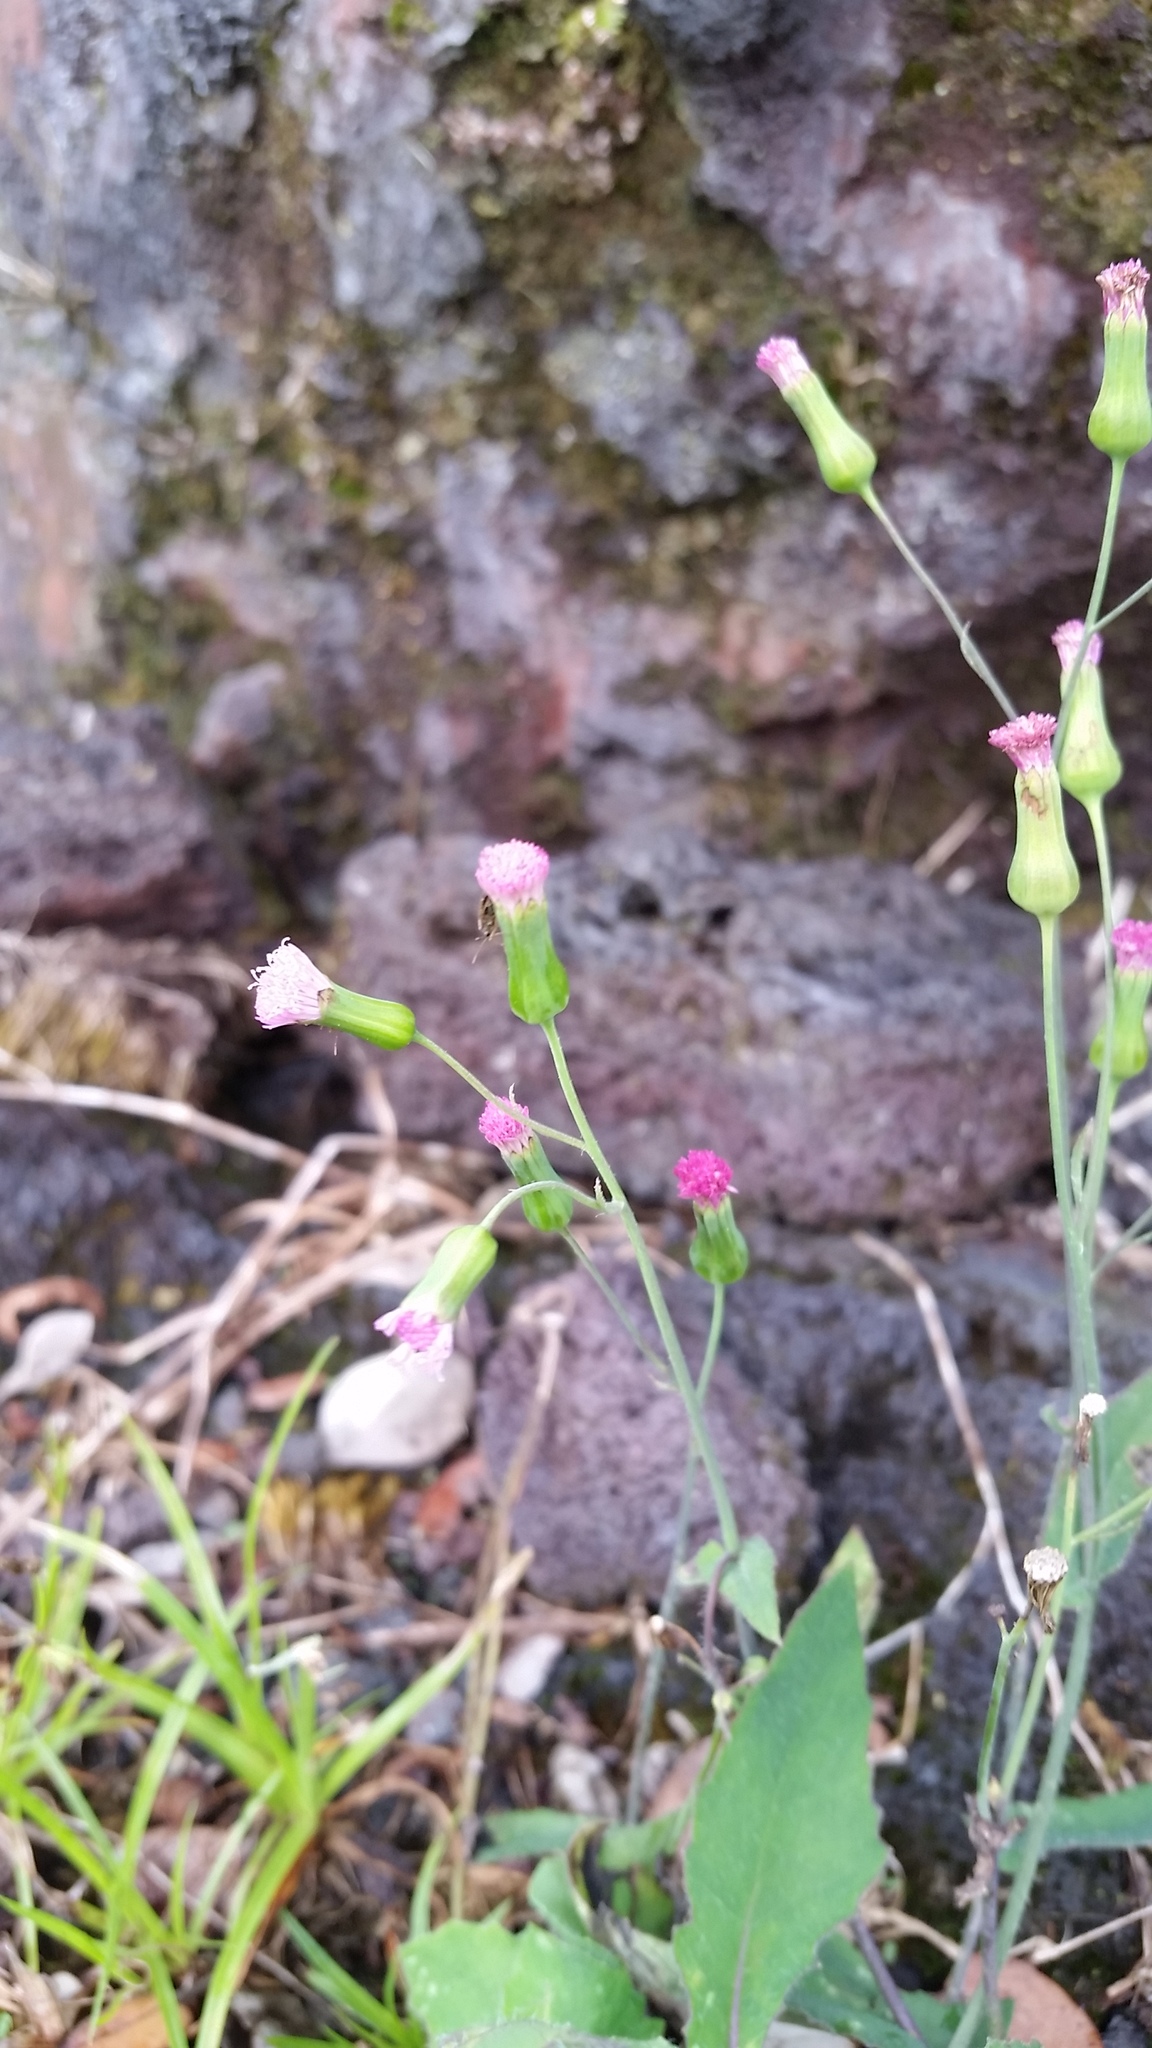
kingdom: Plantae
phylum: Tracheophyta
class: Magnoliopsida
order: Asterales
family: Asteraceae
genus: Emilia
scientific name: Emilia sonchifolia
